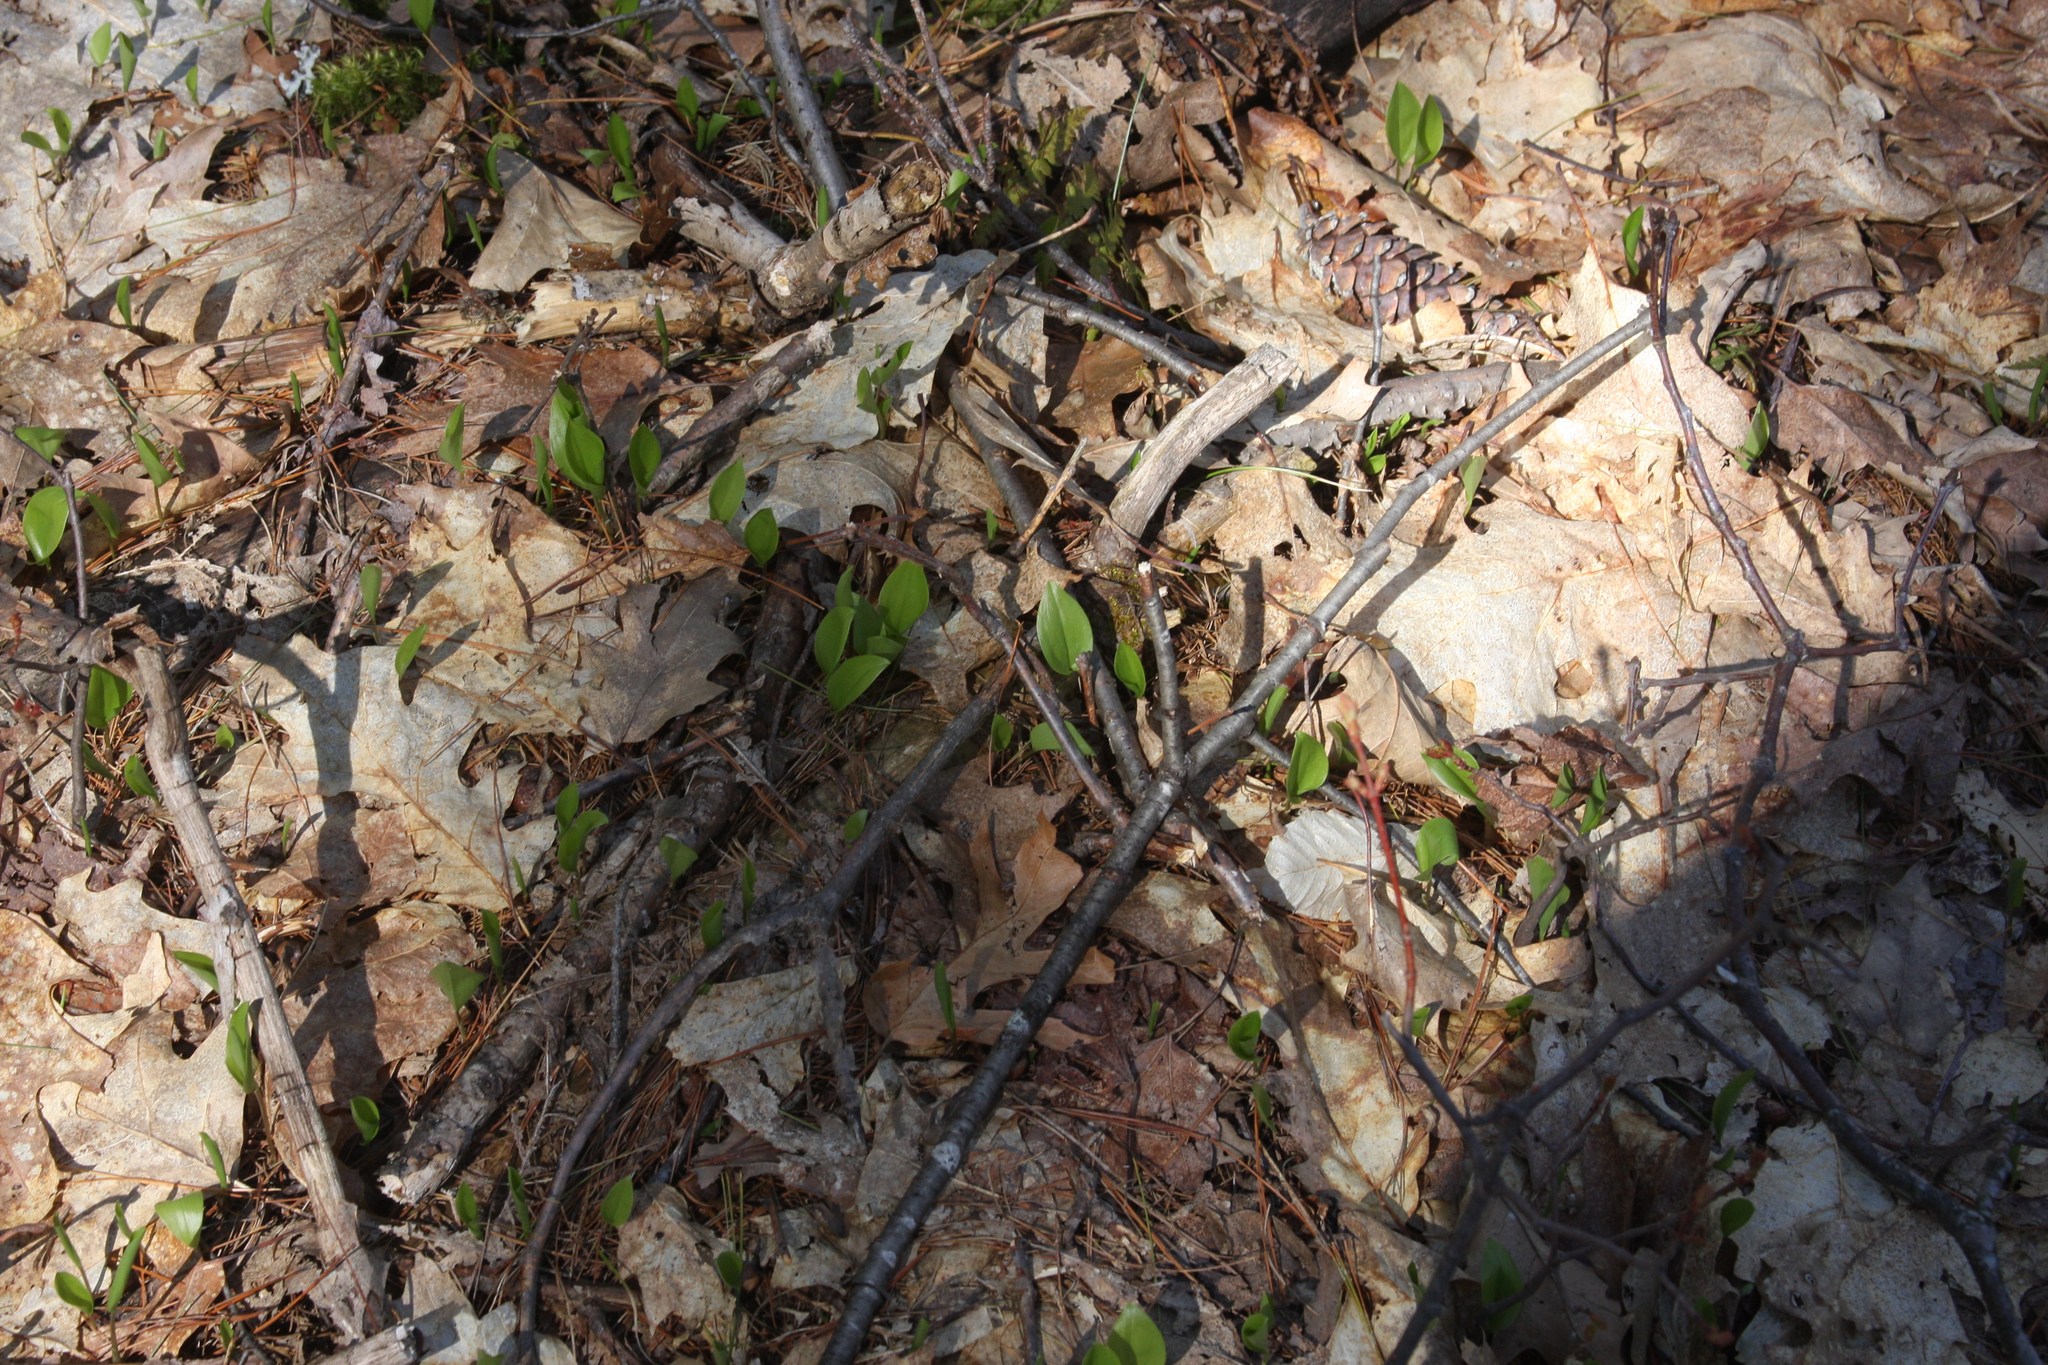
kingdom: Plantae
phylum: Tracheophyta
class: Liliopsida
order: Asparagales
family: Asparagaceae
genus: Maianthemum
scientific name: Maianthemum canadense
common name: False lily-of-the-valley
